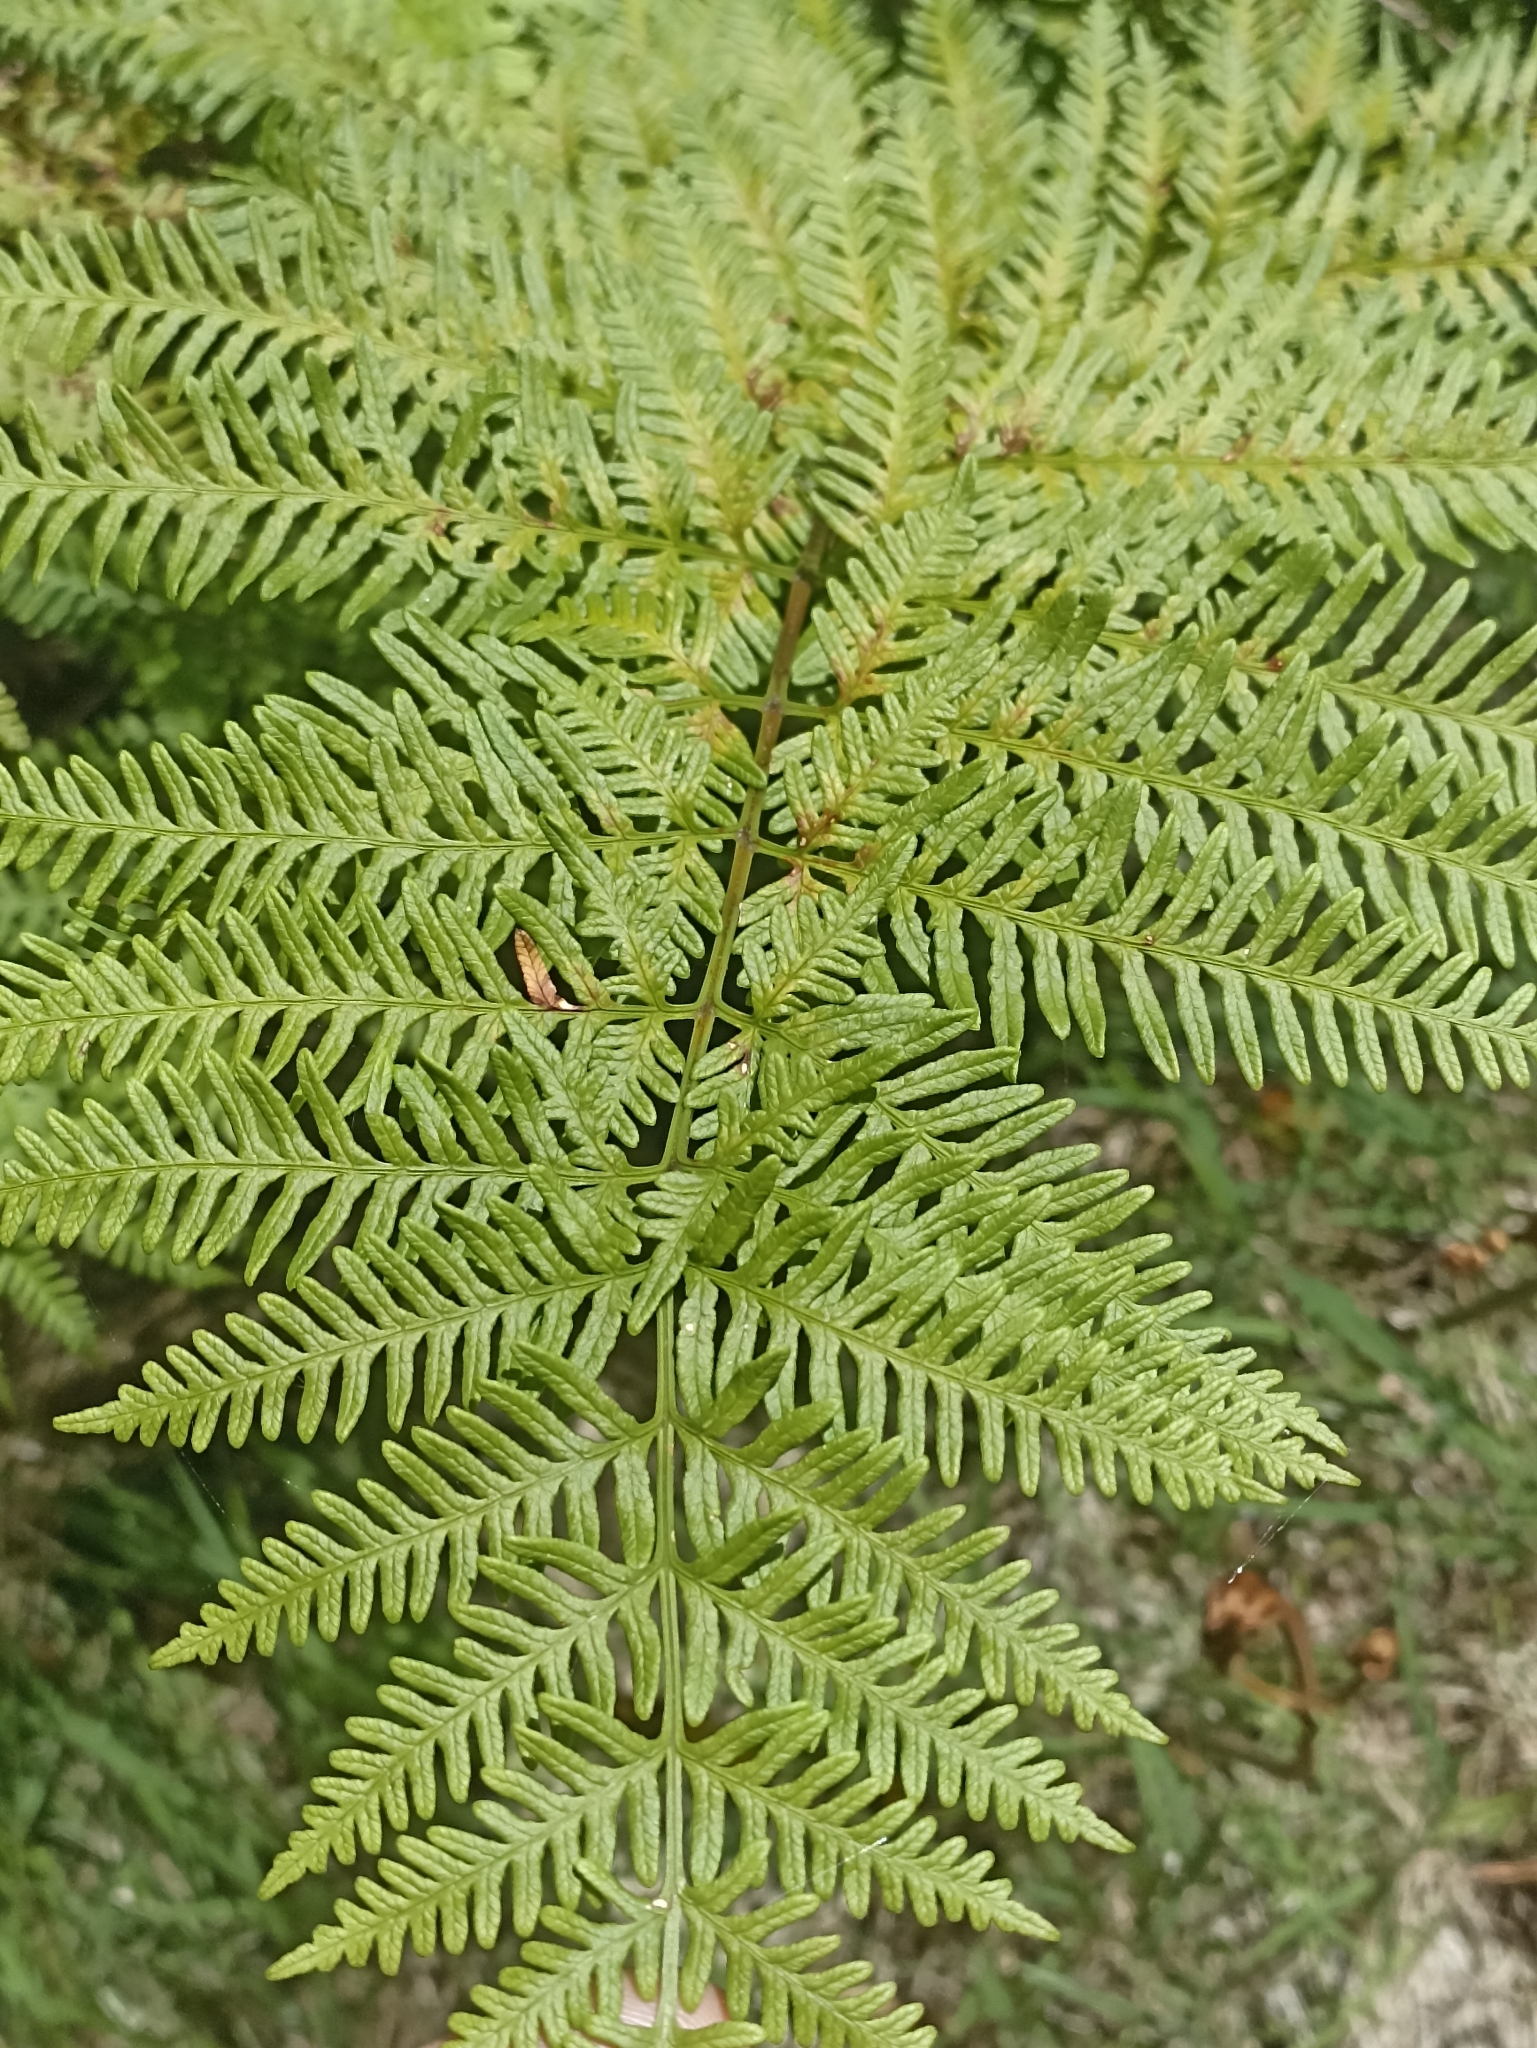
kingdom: Plantae
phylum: Tracheophyta
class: Polypodiopsida
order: Polypodiales
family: Pteridaceae
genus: Pteris
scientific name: Pteris tremula
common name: Australian brake
